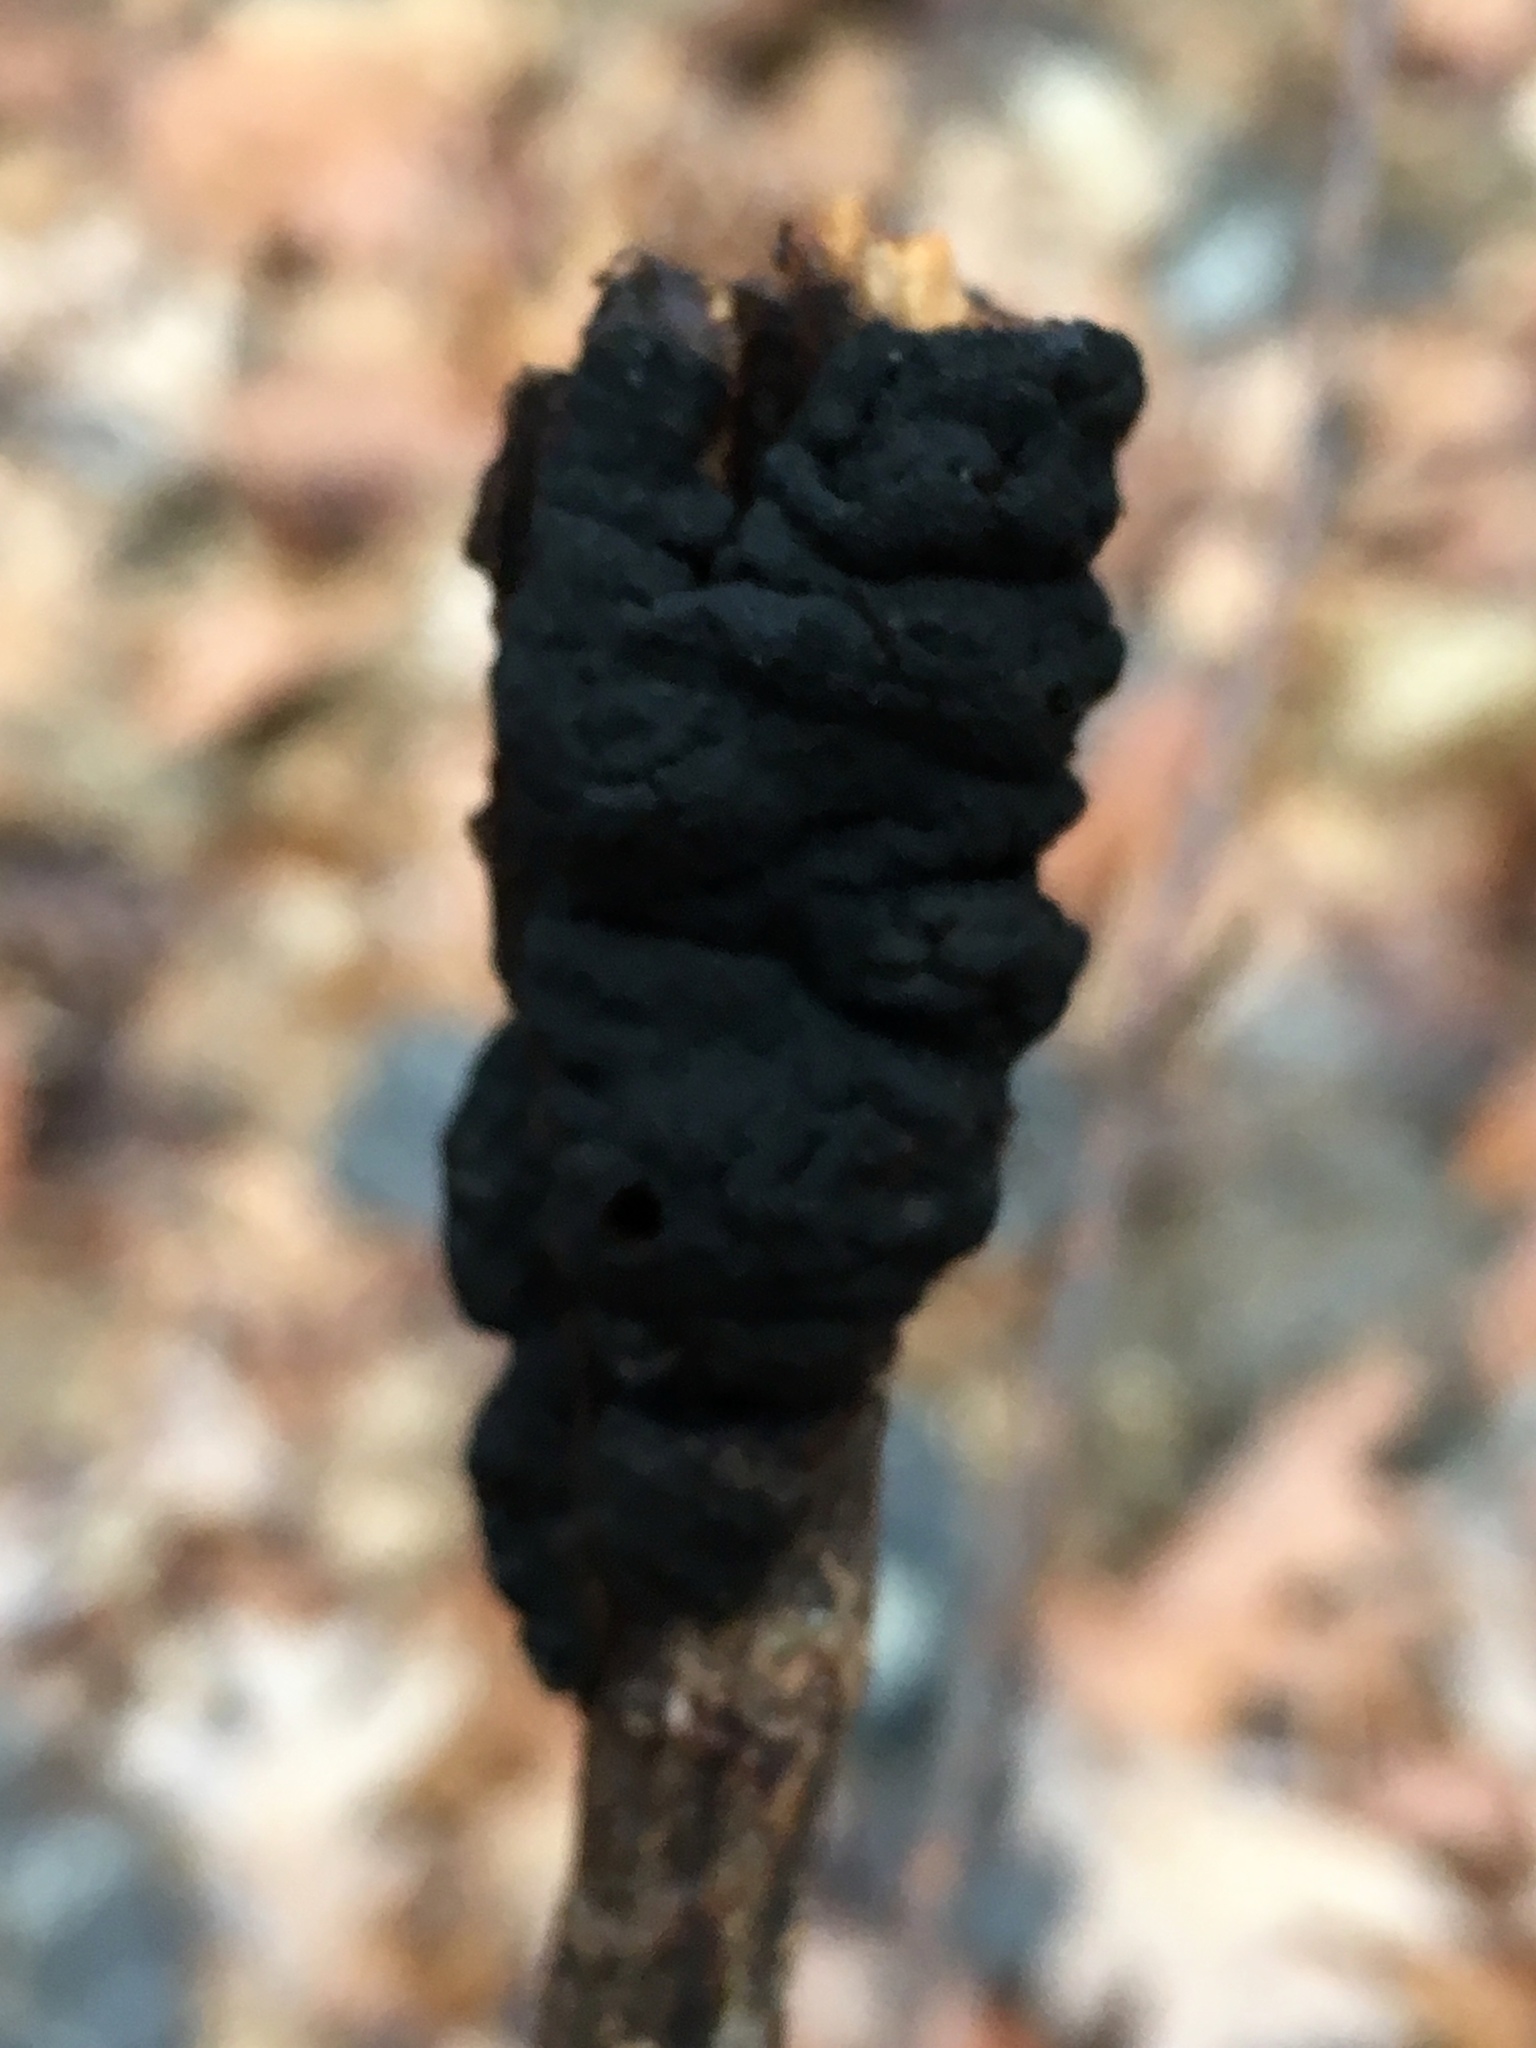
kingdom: Fungi
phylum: Ascomycota
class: Dothideomycetes
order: Venturiales
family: Venturiaceae
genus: Apiosporina
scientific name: Apiosporina morbosa
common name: Black knot
